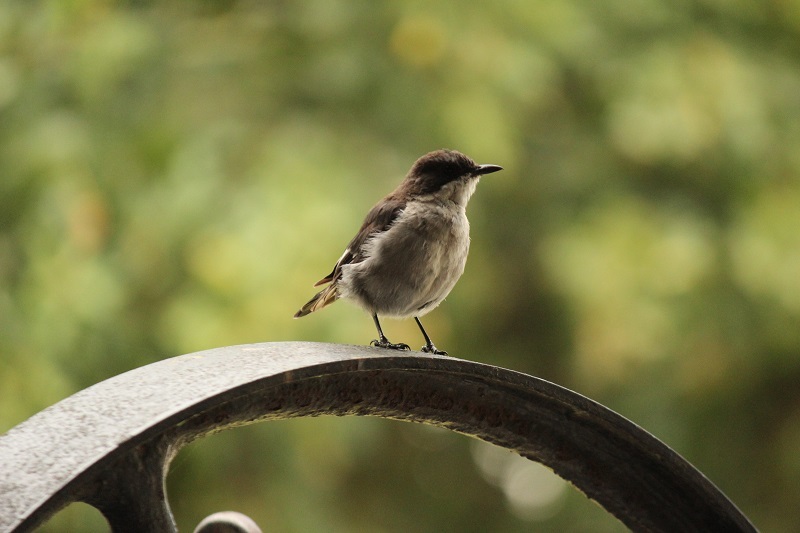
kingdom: Animalia
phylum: Chordata
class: Aves
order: Passeriformes
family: Muscicapidae
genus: Sigelus
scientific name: Sigelus silens
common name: Fiscal flycatcher
